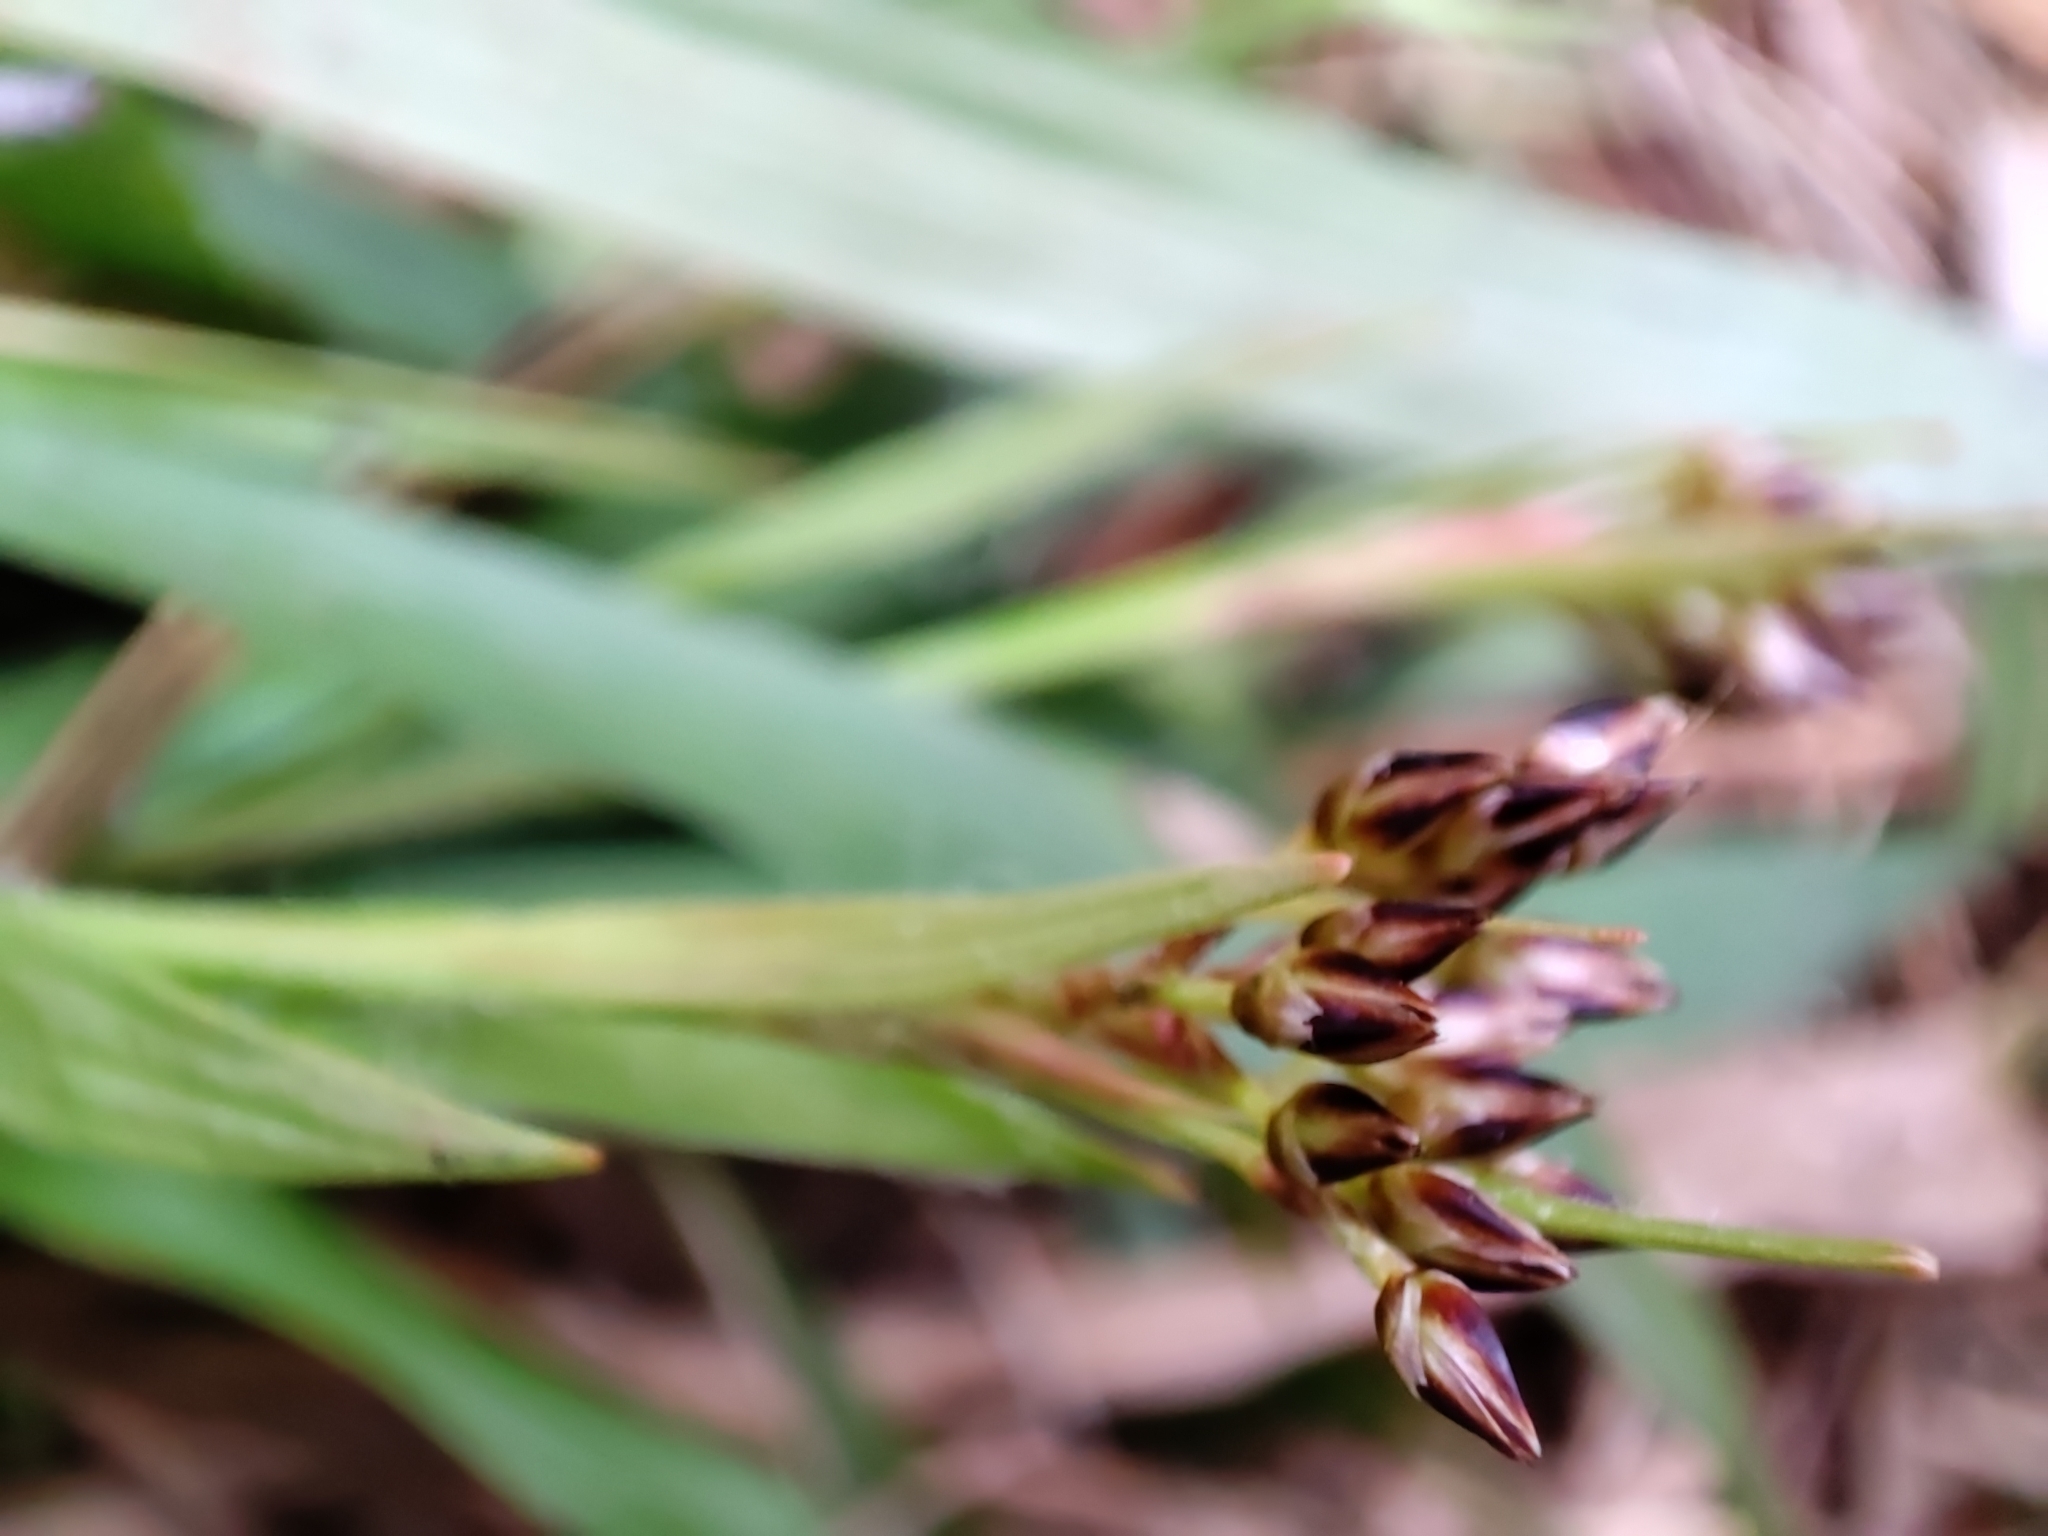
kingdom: Plantae
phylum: Tracheophyta
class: Liliopsida
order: Poales
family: Juncaceae
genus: Luzula
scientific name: Luzula pilosa
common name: Hairy wood-rush
